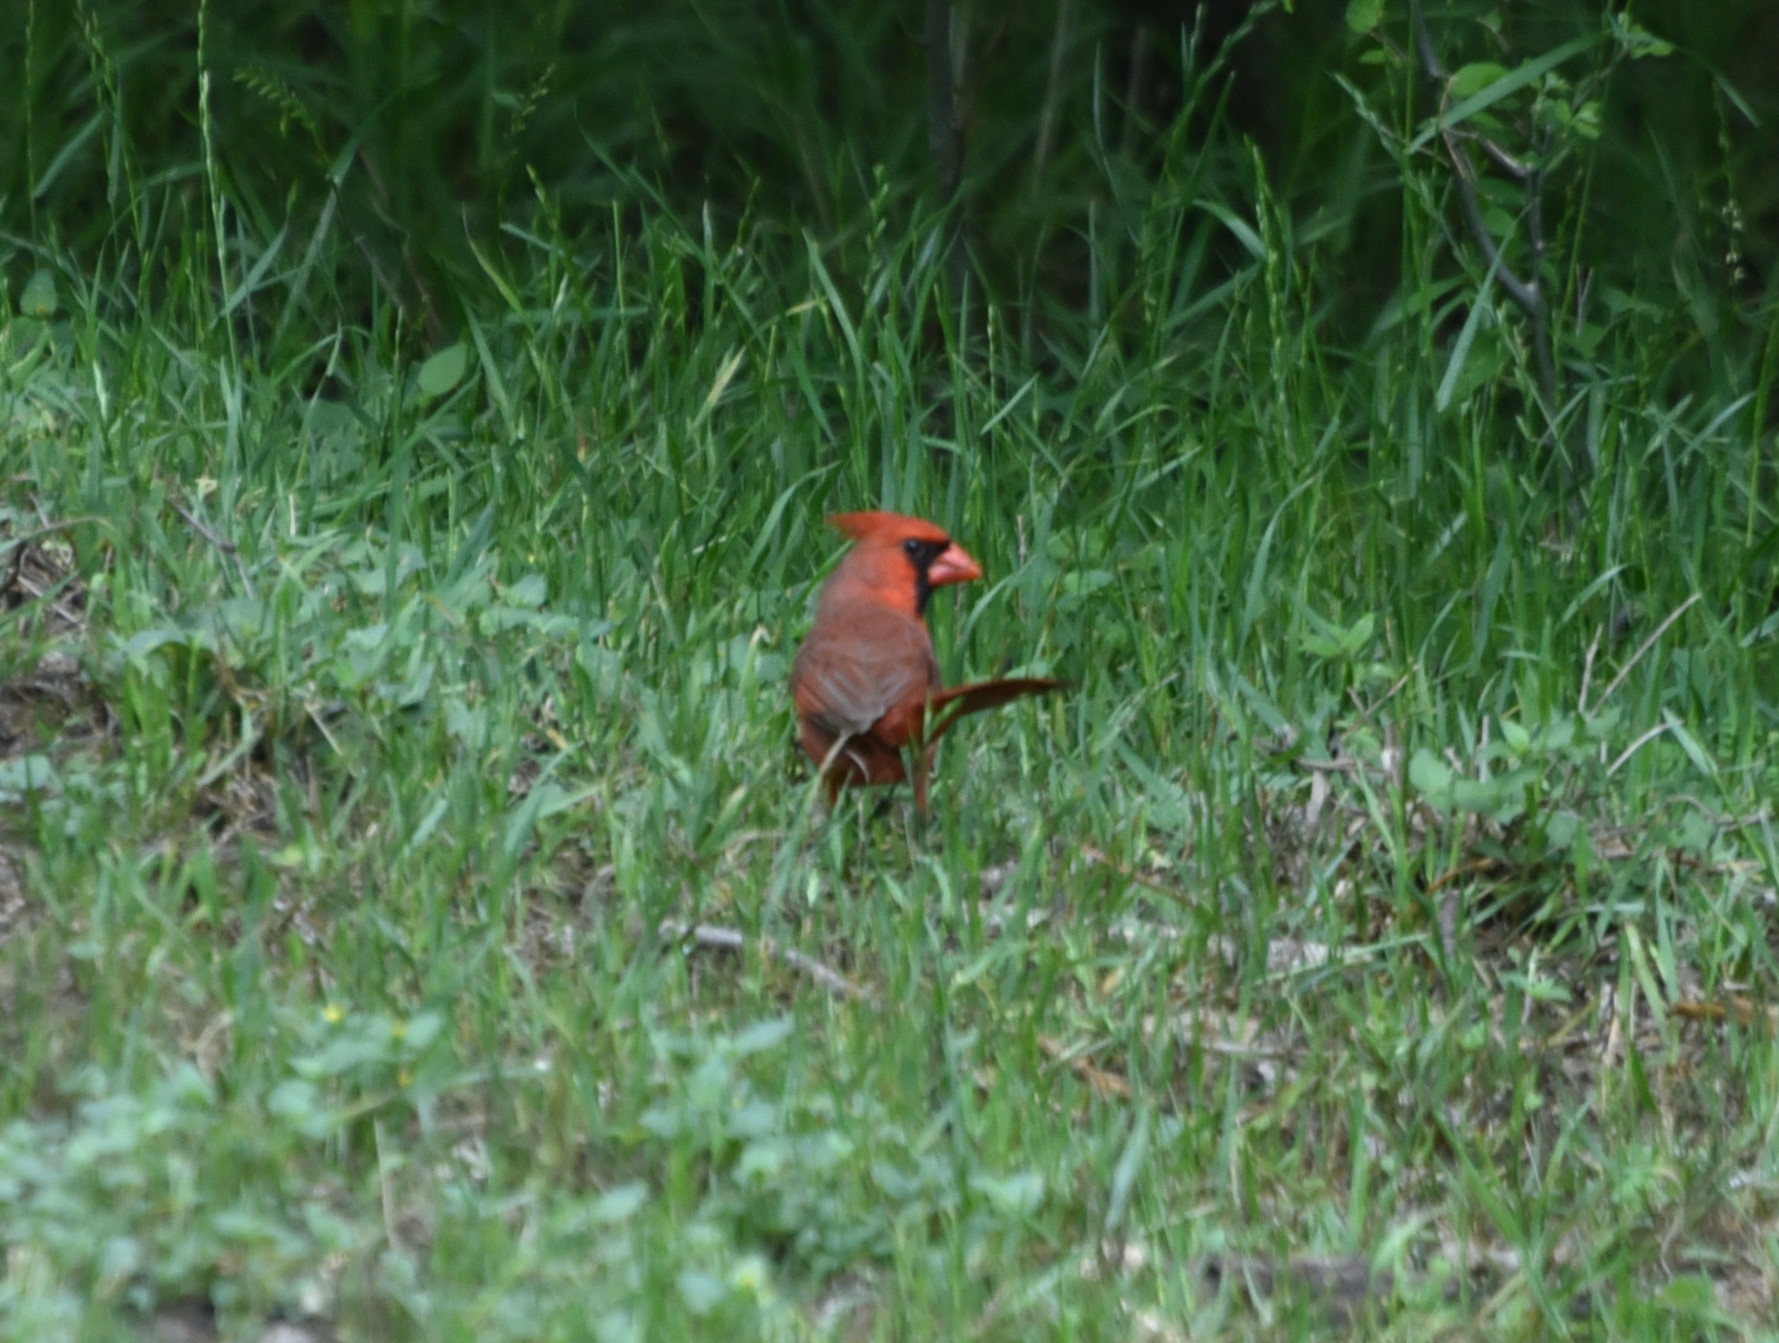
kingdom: Animalia
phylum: Chordata
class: Aves
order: Passeriformes
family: Cardinalidae
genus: Cardinalis
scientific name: Cardinalis cardinalis
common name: Northern cardinal
